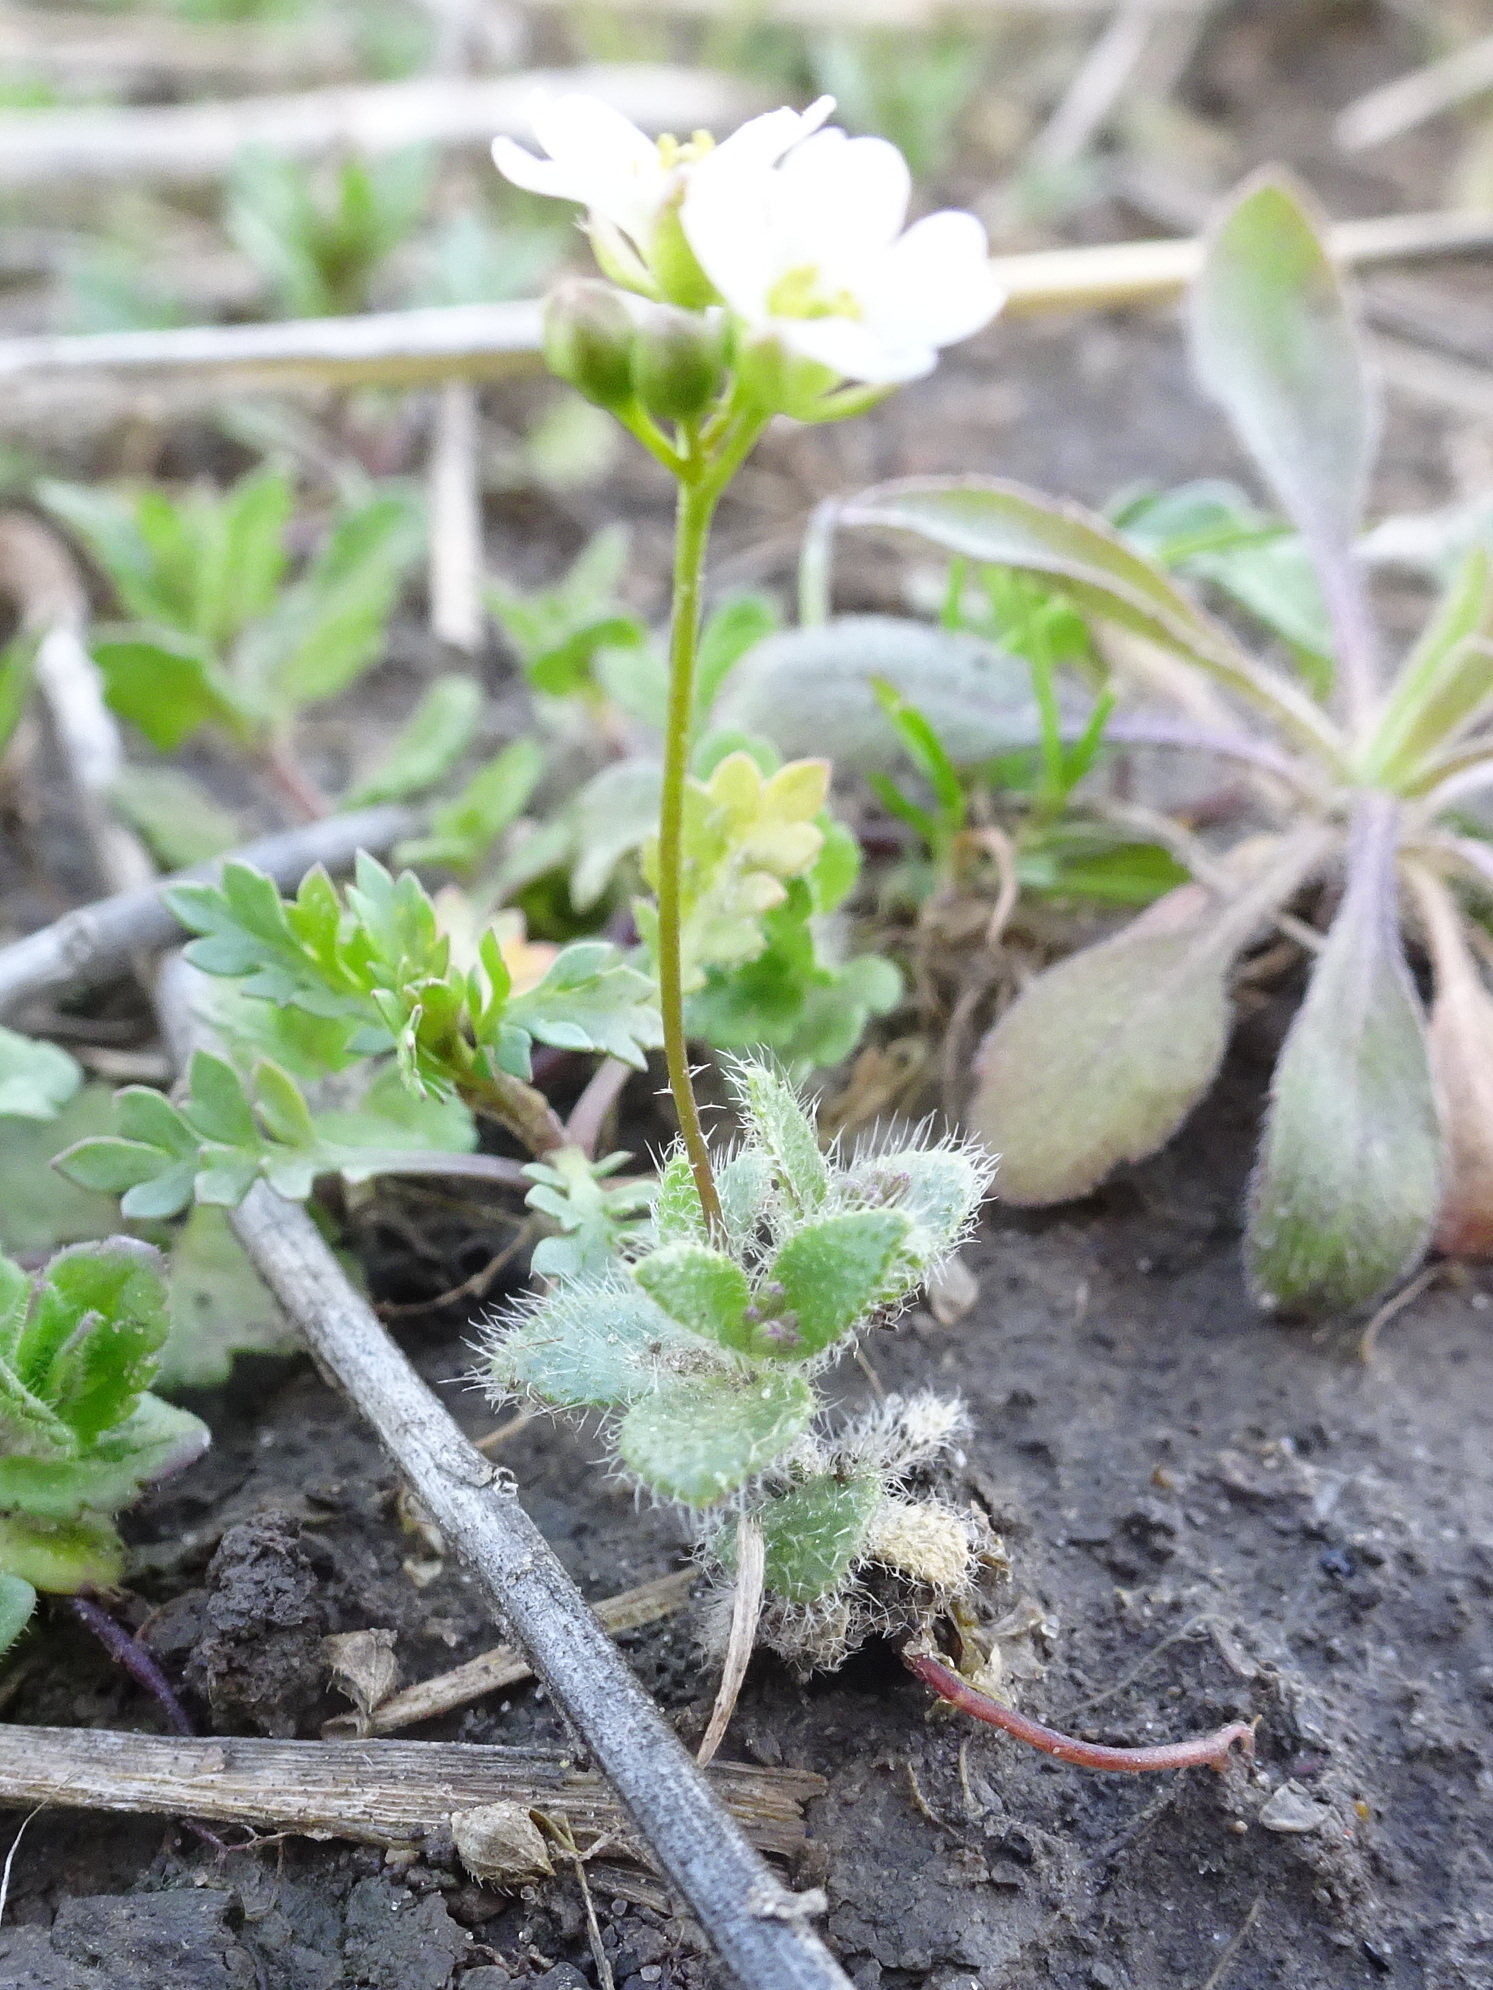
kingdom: Plantae
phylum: Tracheophyta
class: Magnoliopsida
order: Brassicales
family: Brassicaceae
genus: Tomostima
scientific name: Tomostima reptans
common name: Carolina draba
